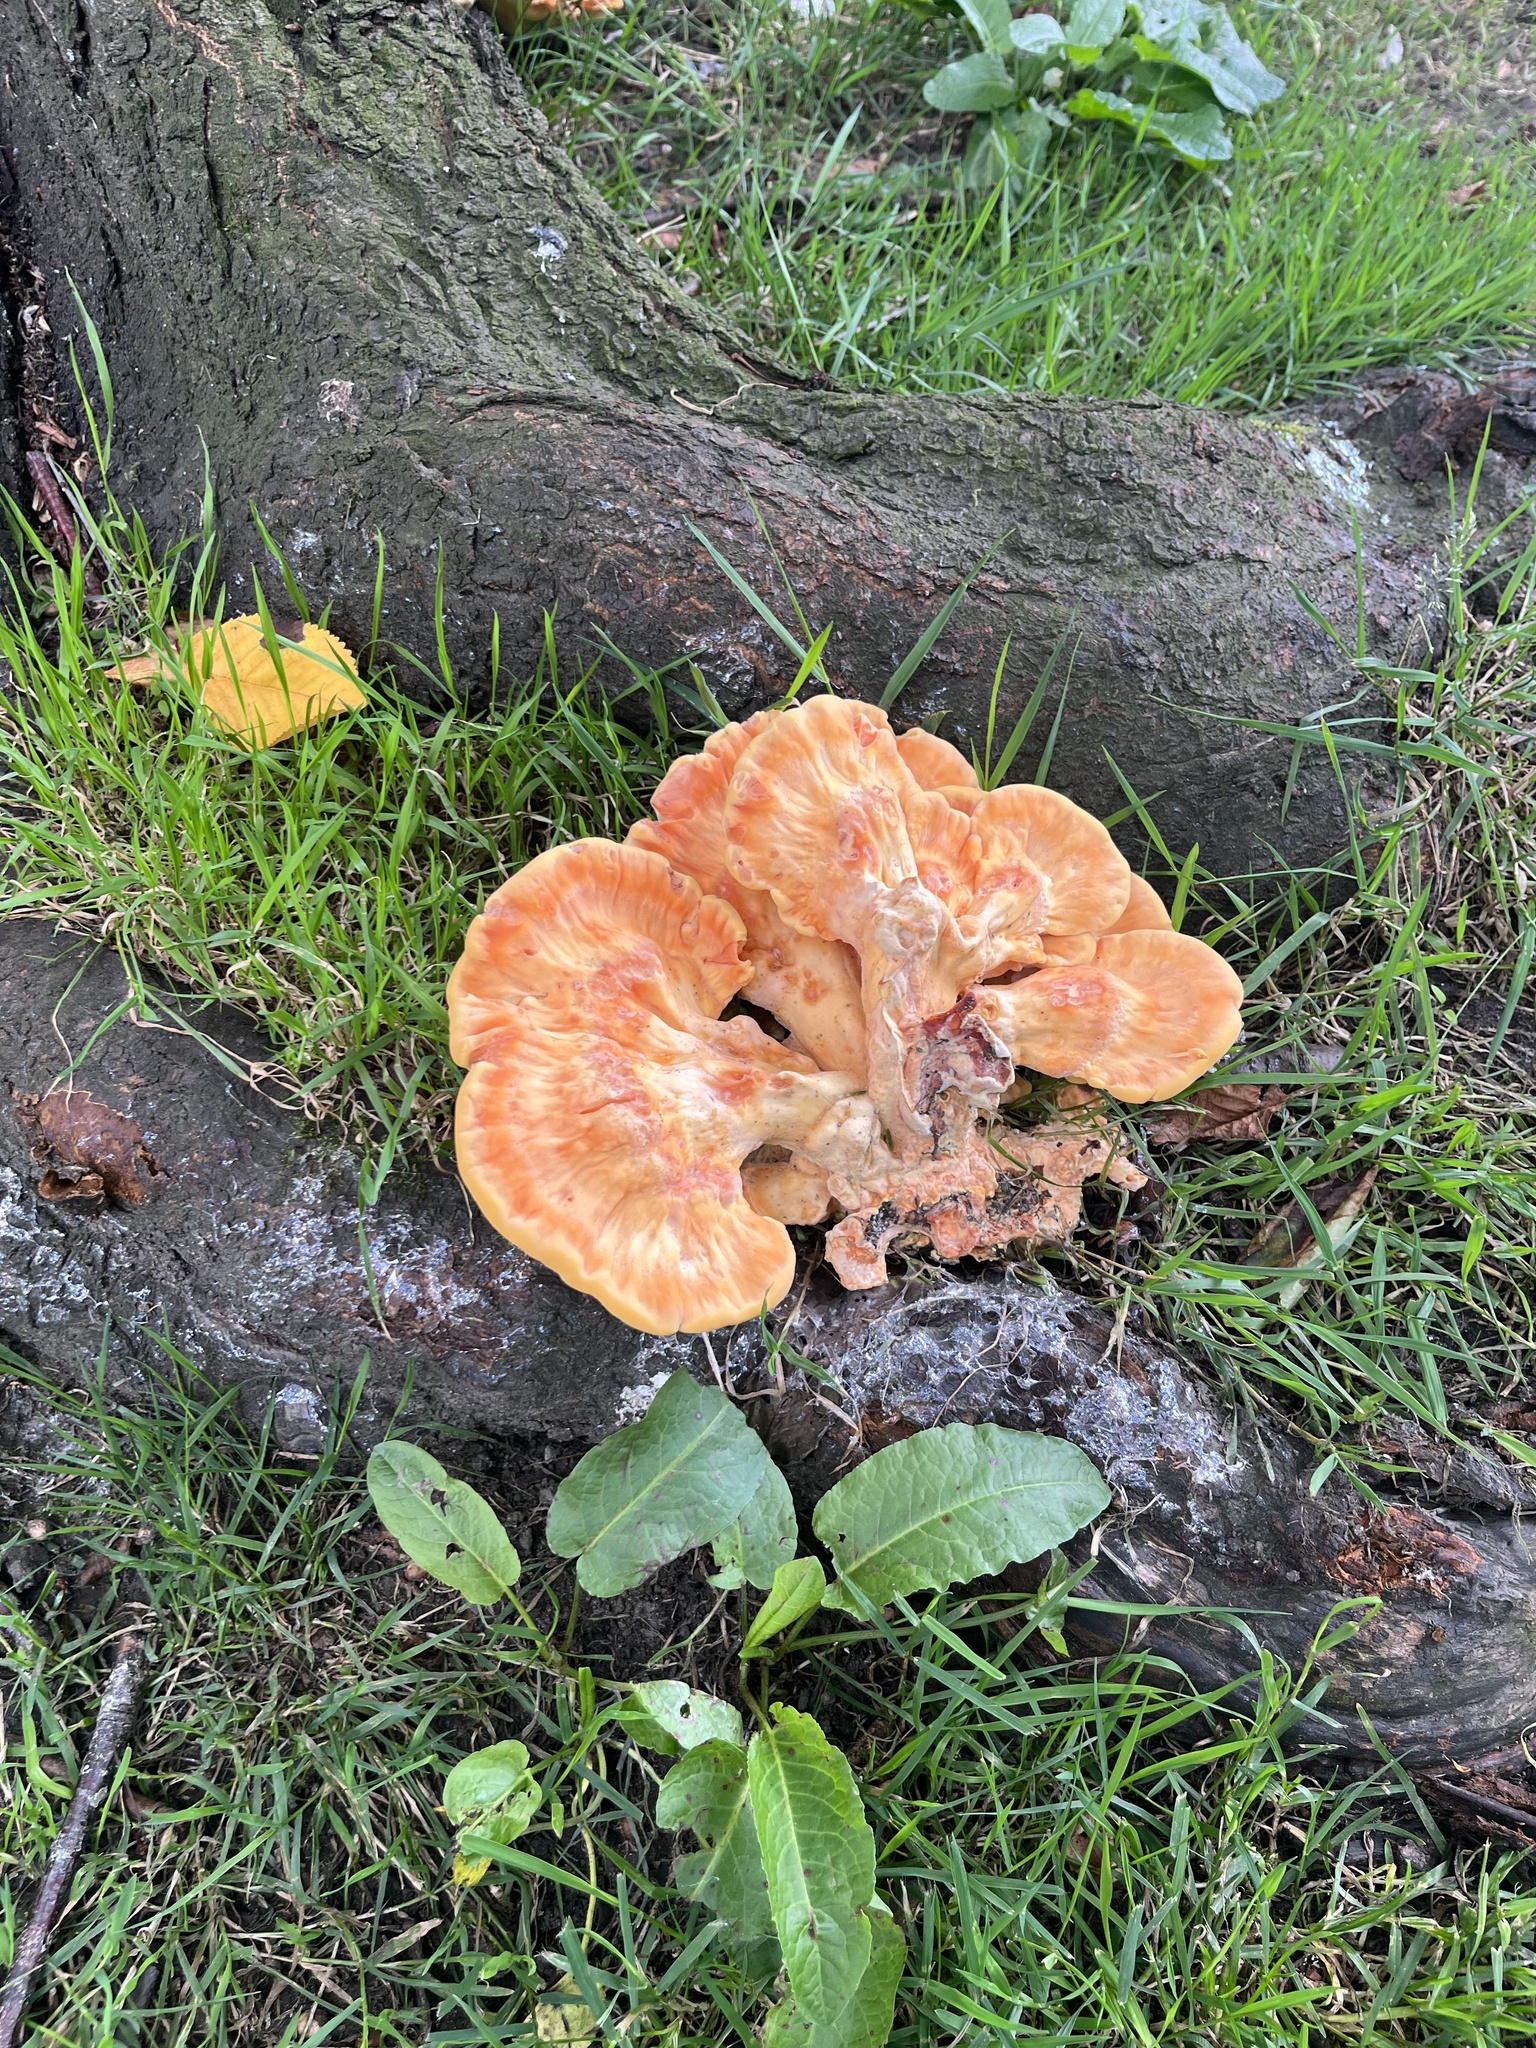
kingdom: Fungi
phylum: Basidiomycota
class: Agaricomycetes
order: Polyporales
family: Laetiporaceae
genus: Laetiporus
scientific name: Laetiporus sulphureus
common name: Chicken of the woods
